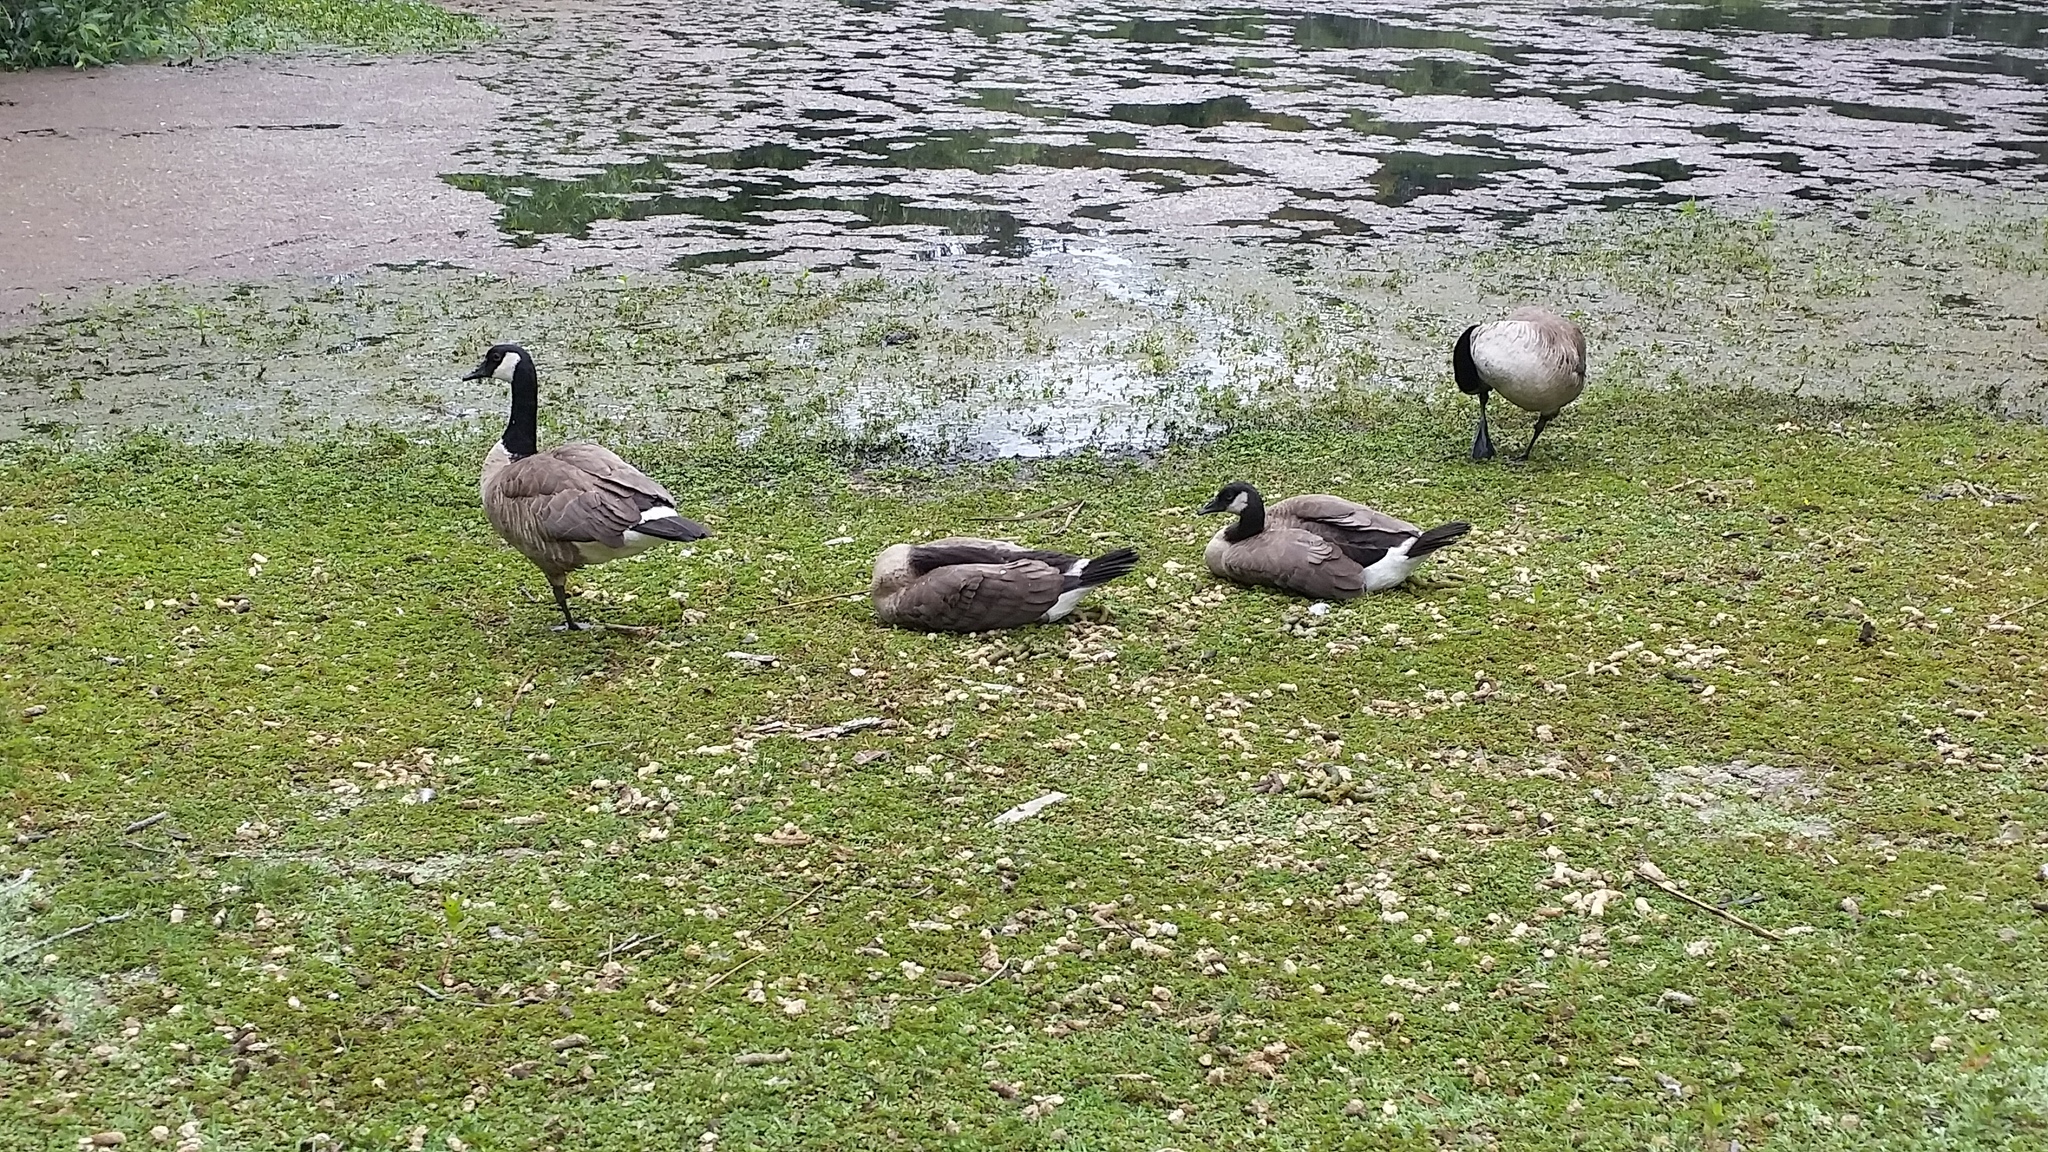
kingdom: Animalia
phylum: Chordata
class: Aves
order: Anseriformes
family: Anatidae
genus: Branta
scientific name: Branta canadensis
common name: Canada goose
